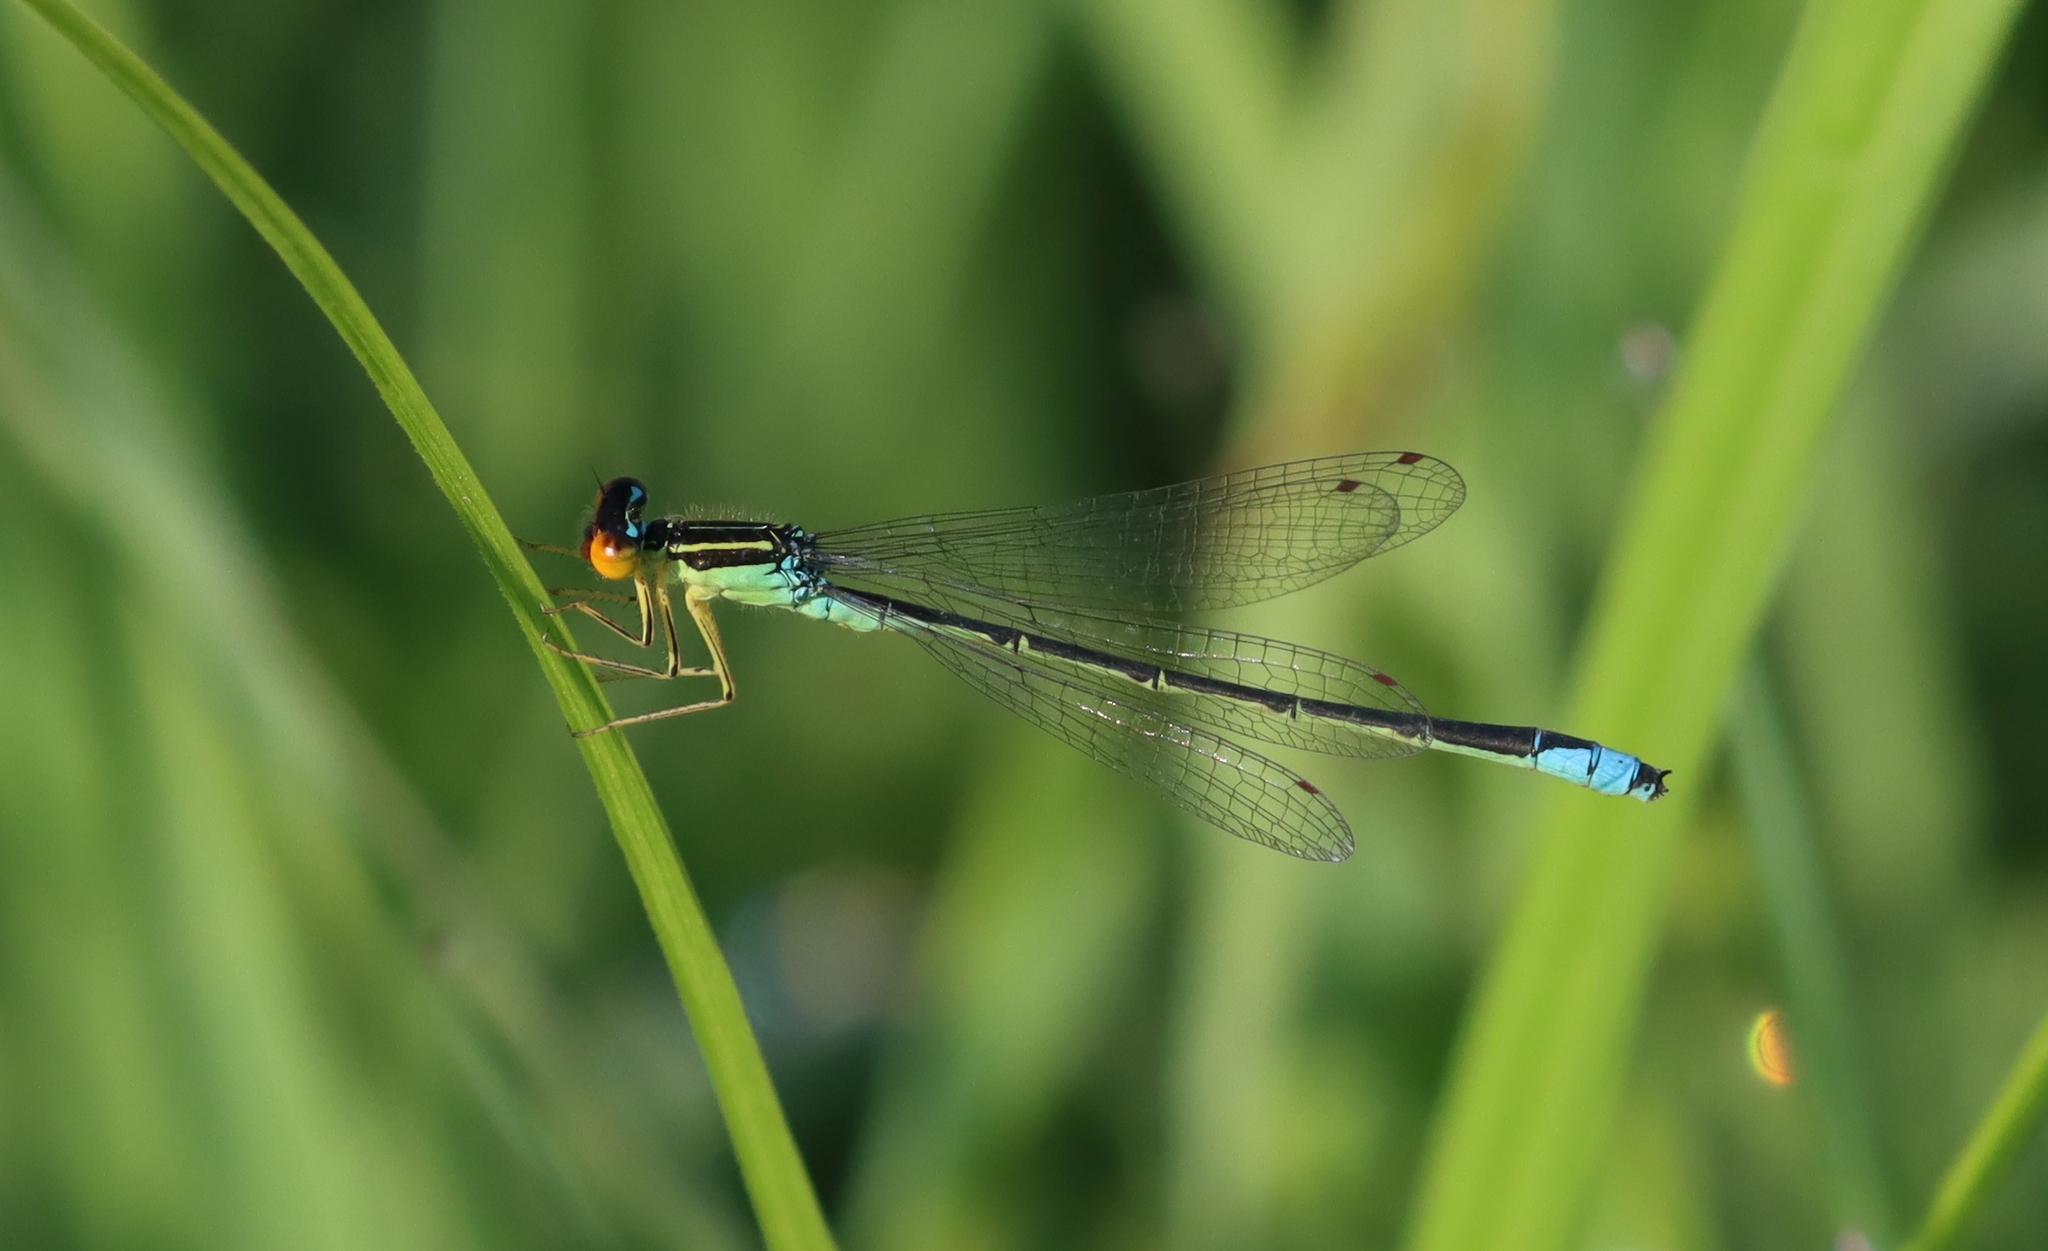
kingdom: Animalia
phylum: Arthropoda
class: Insecta
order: Odonata
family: Coenagrionidae
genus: Enallagma
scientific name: Enallagma antennatum
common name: Rainbow bluet
